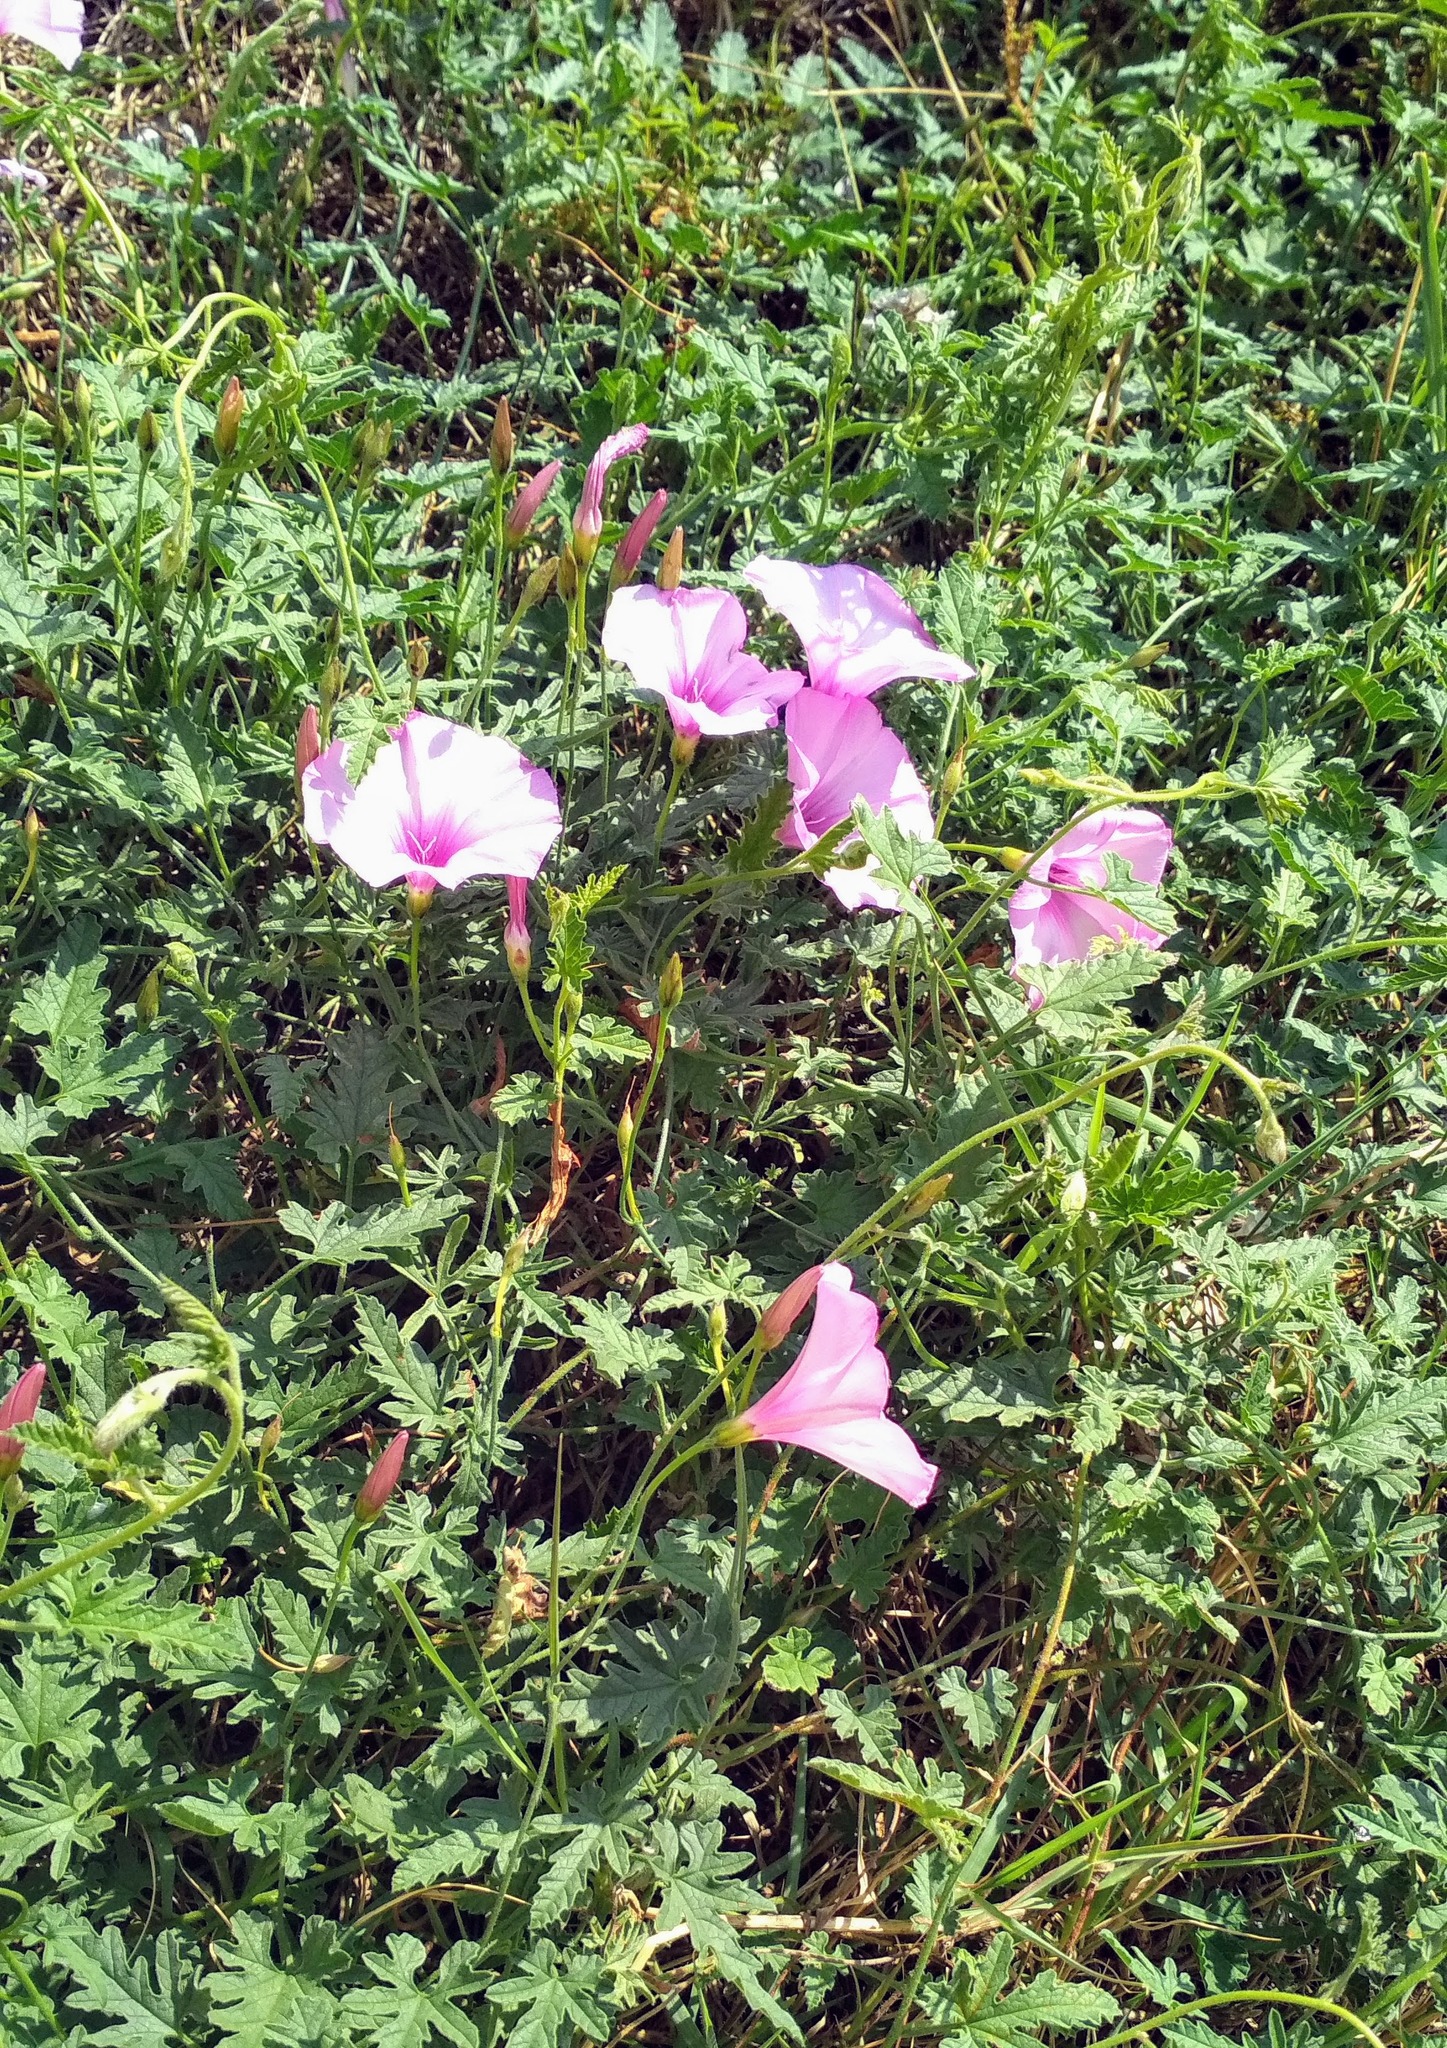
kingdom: Plantae
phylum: Tracheophyta
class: Magnoliopsida
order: Solanales
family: Convolvulaceae
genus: Convolvulus
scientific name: Convolvulus althaeoides
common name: Mallow bindweed
